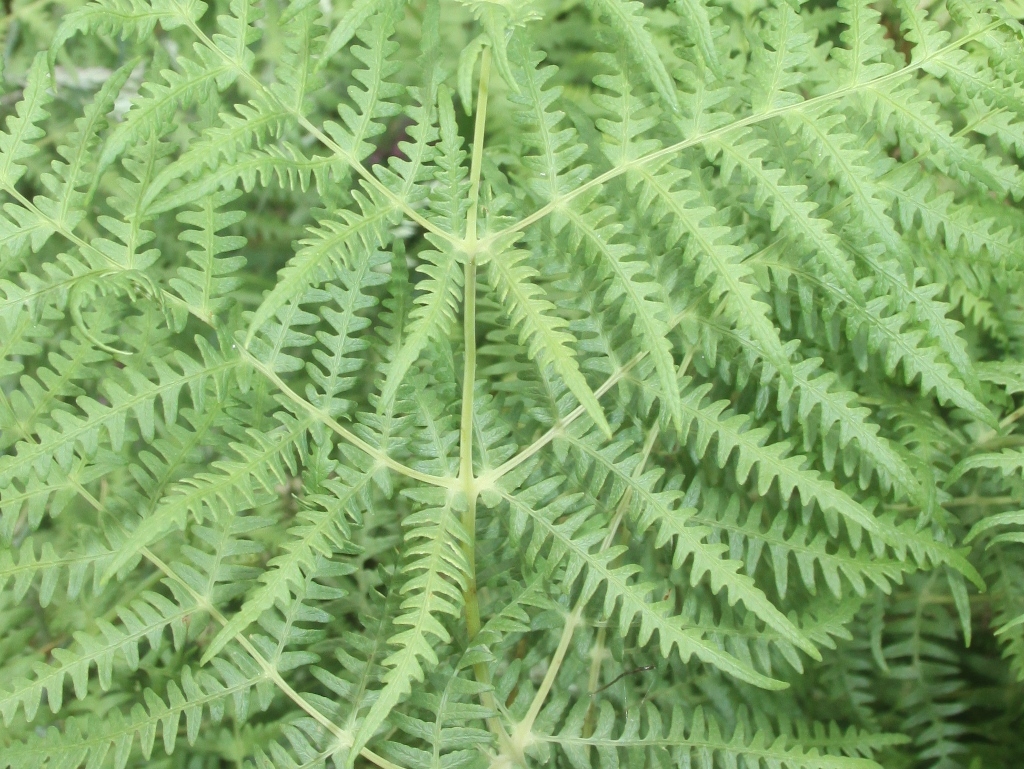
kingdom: Plantae
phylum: Tracheophyta
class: Polypodiopsida
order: Polypodiales
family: Dennstaedtiaceae
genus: Histiopteris
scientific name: Histiopteris incisa
